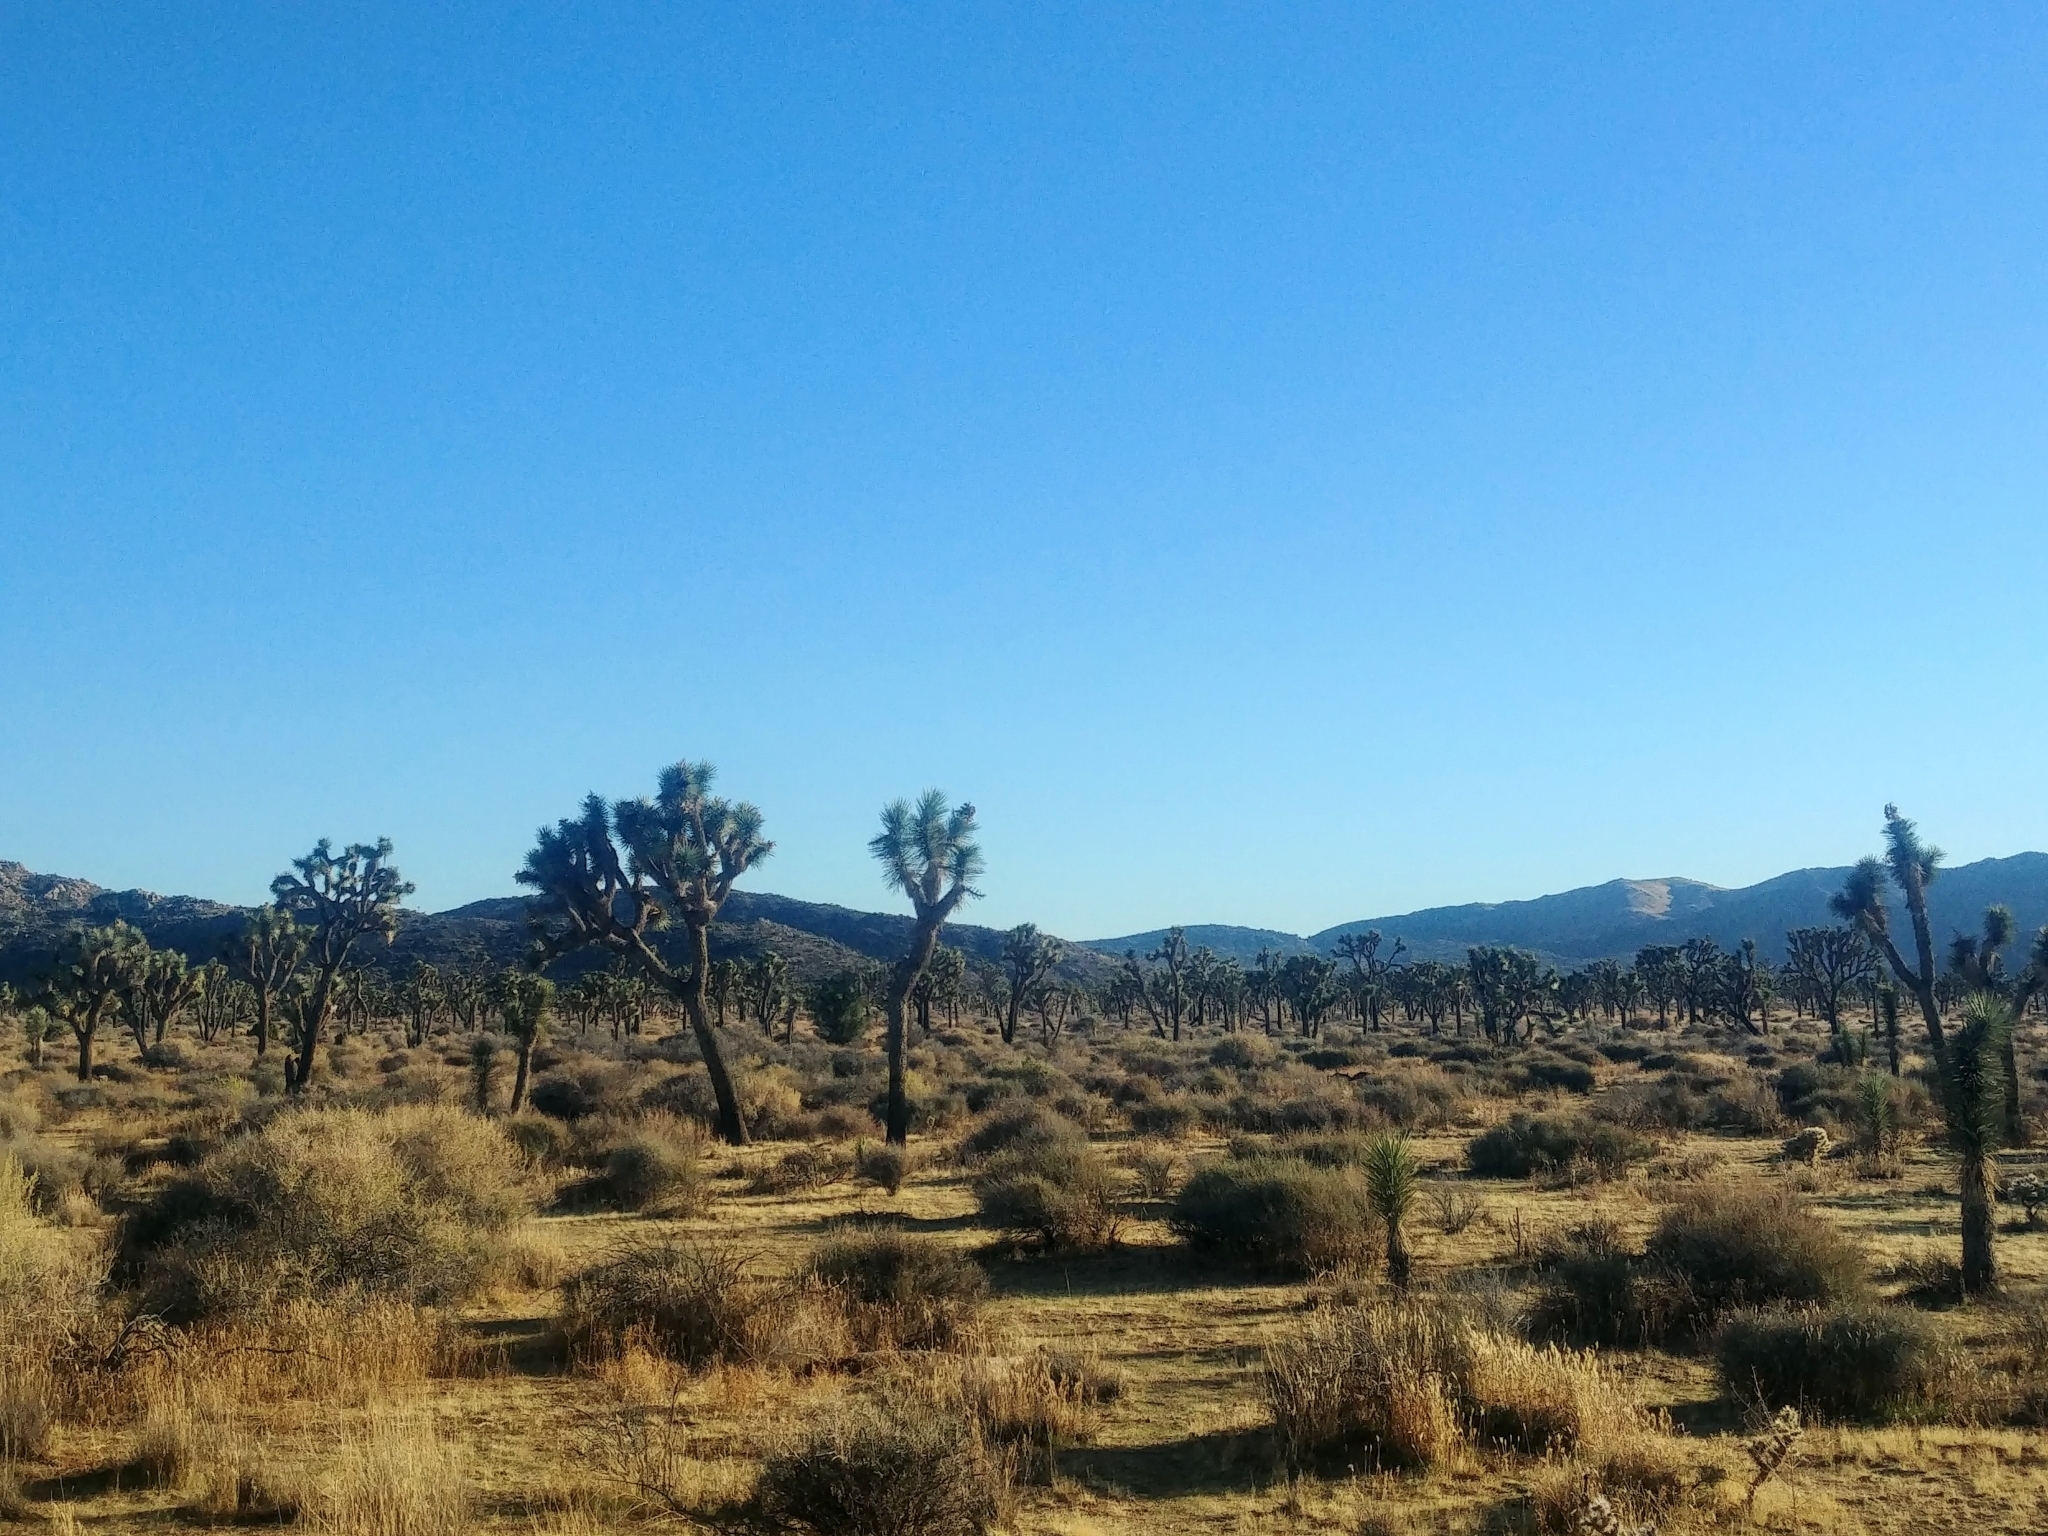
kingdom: Plantae
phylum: Tracheophyta
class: Liliopsida
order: Asparagales
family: Asparagaceae
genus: Yucca
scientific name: Yucca brevifolia
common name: Joshua tree
